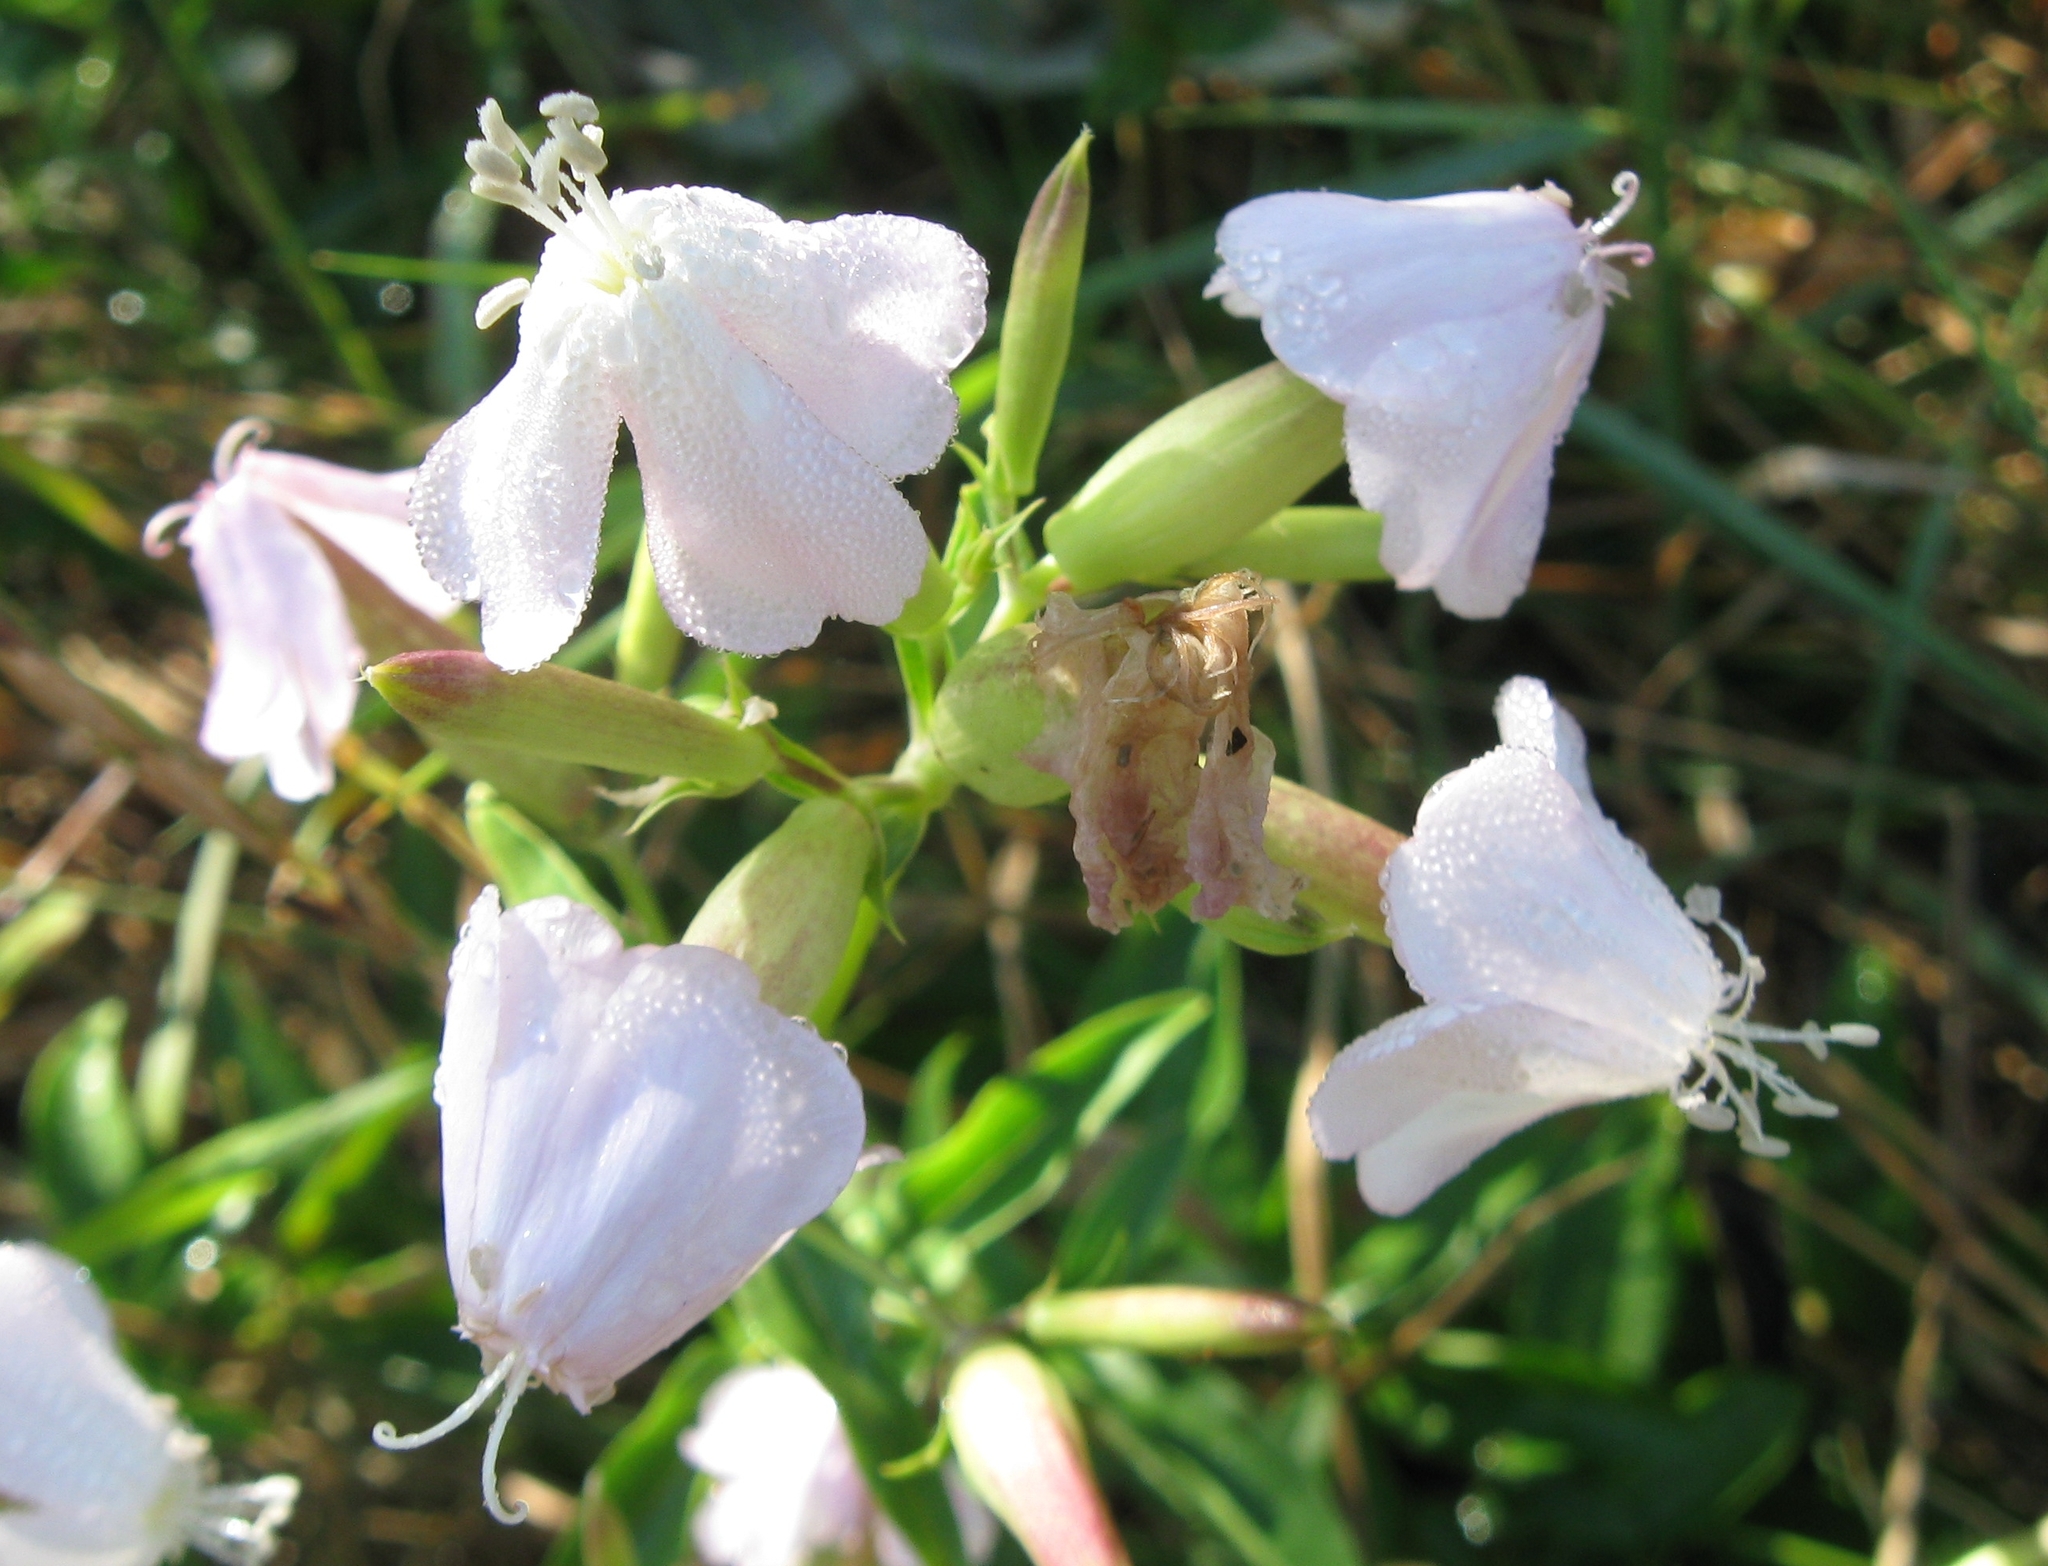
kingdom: Plantae
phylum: Tracheophyta
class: Magnoliopsida
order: Caryophyllales
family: Caryophyllaceae
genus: Saponaria
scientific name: Saponaria officinalis
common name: Soapwort
